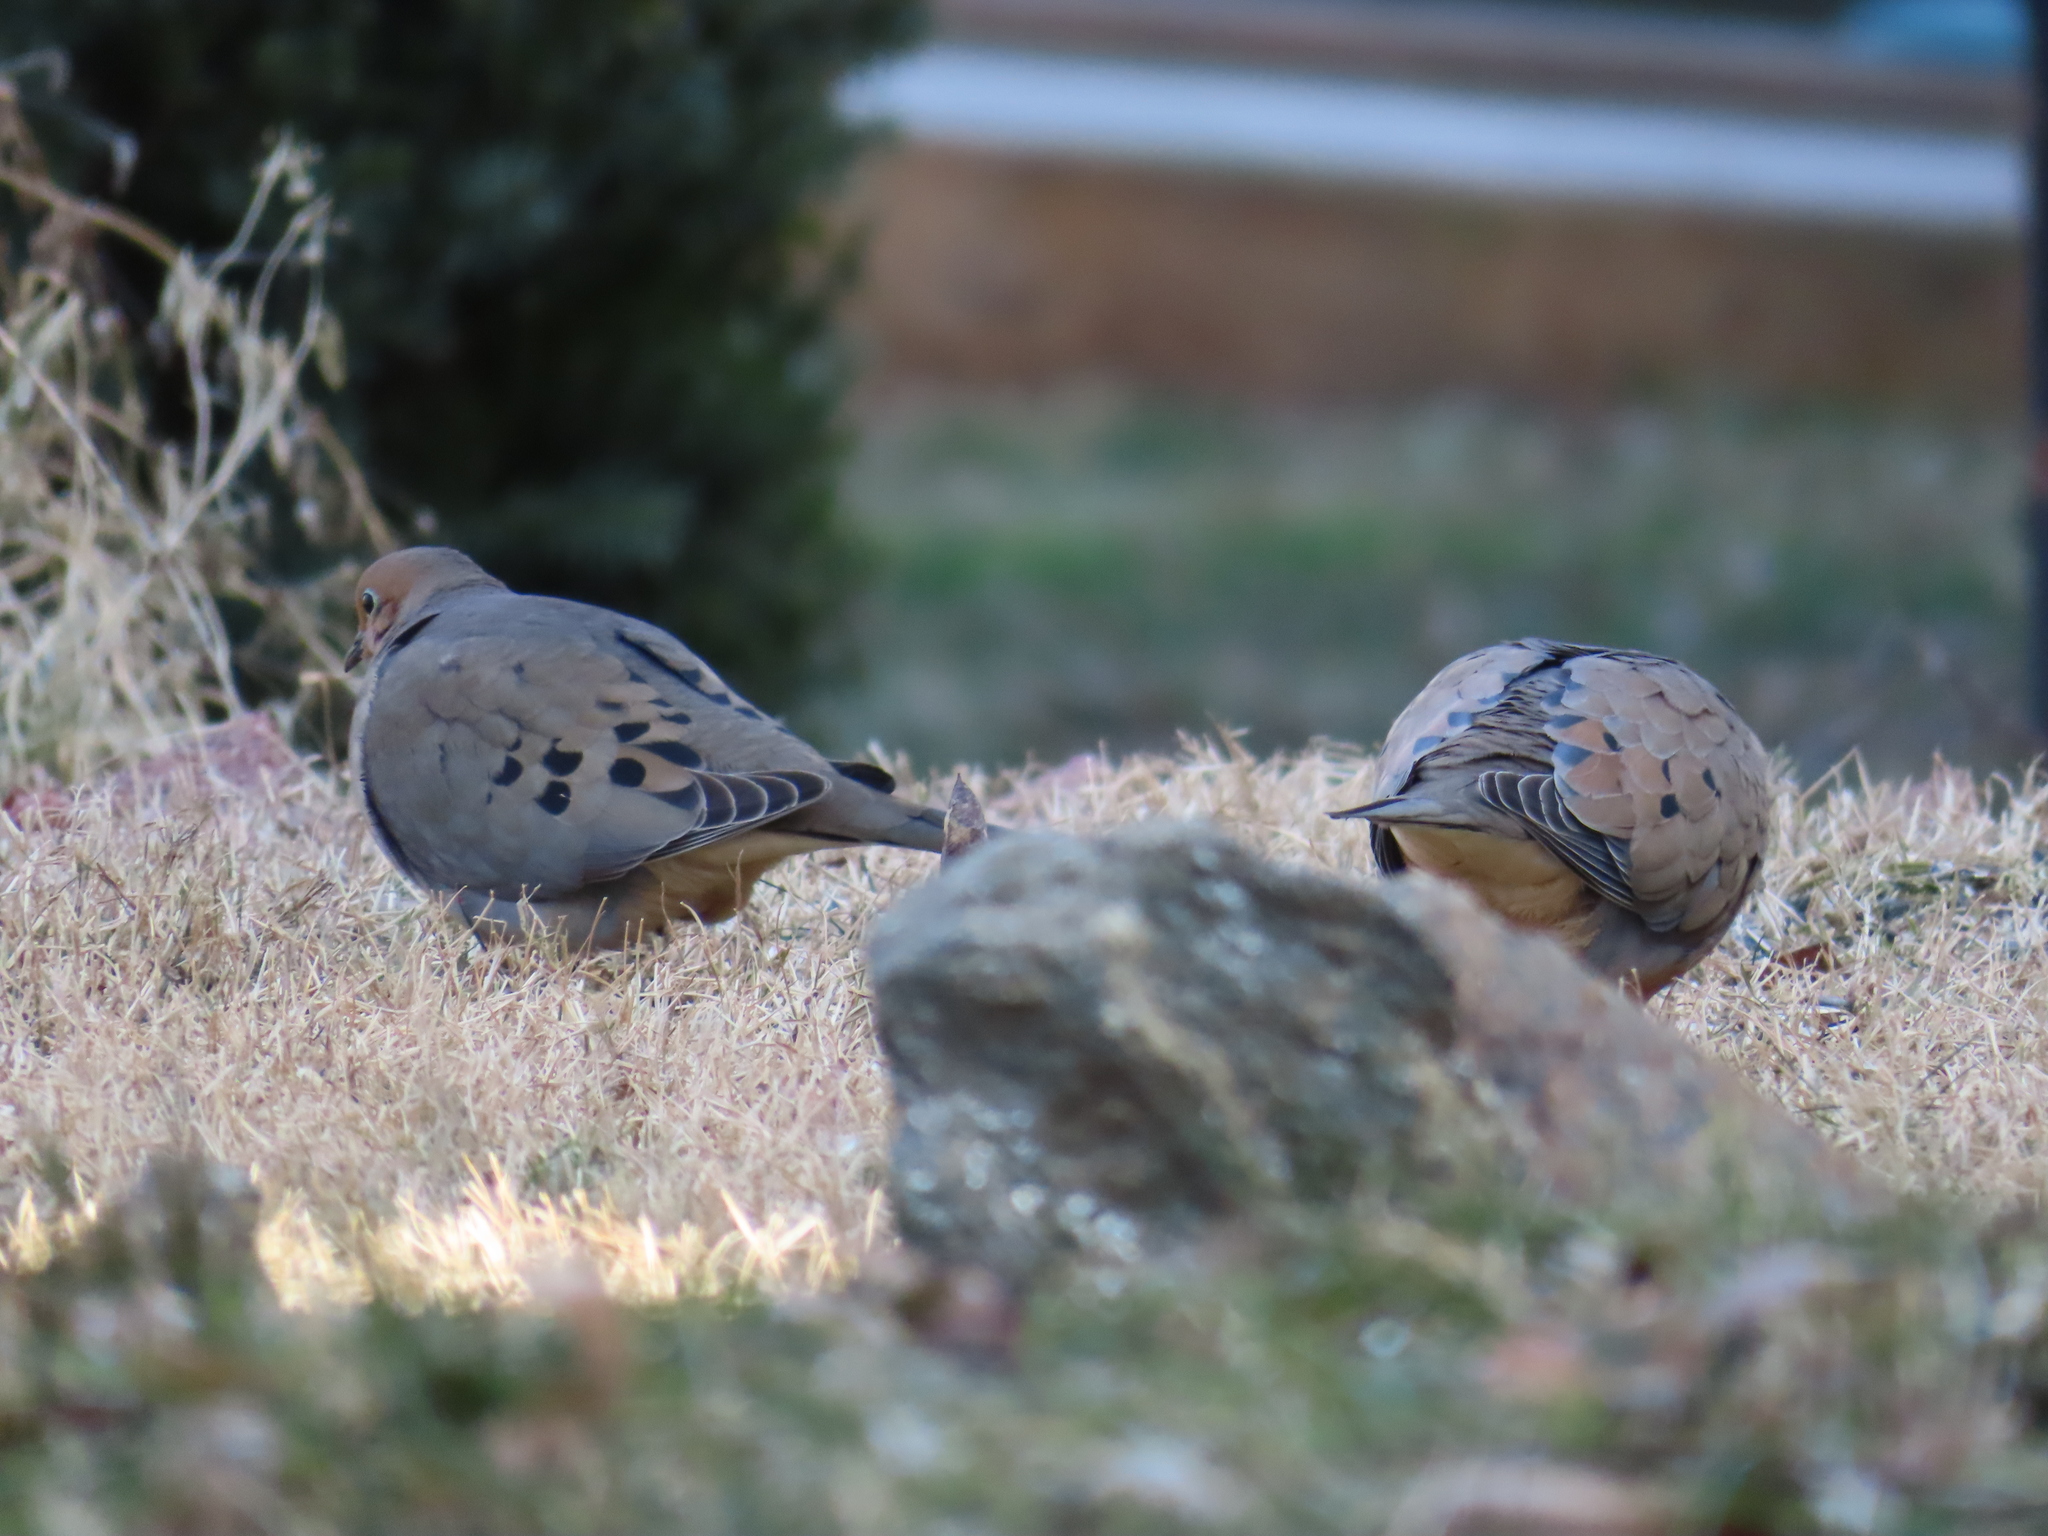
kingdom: Animalia
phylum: Chordata
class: Aves
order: Columbiformes
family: Columbidae
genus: Zenaida
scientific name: Zenaida macroura
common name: Mourning dove
